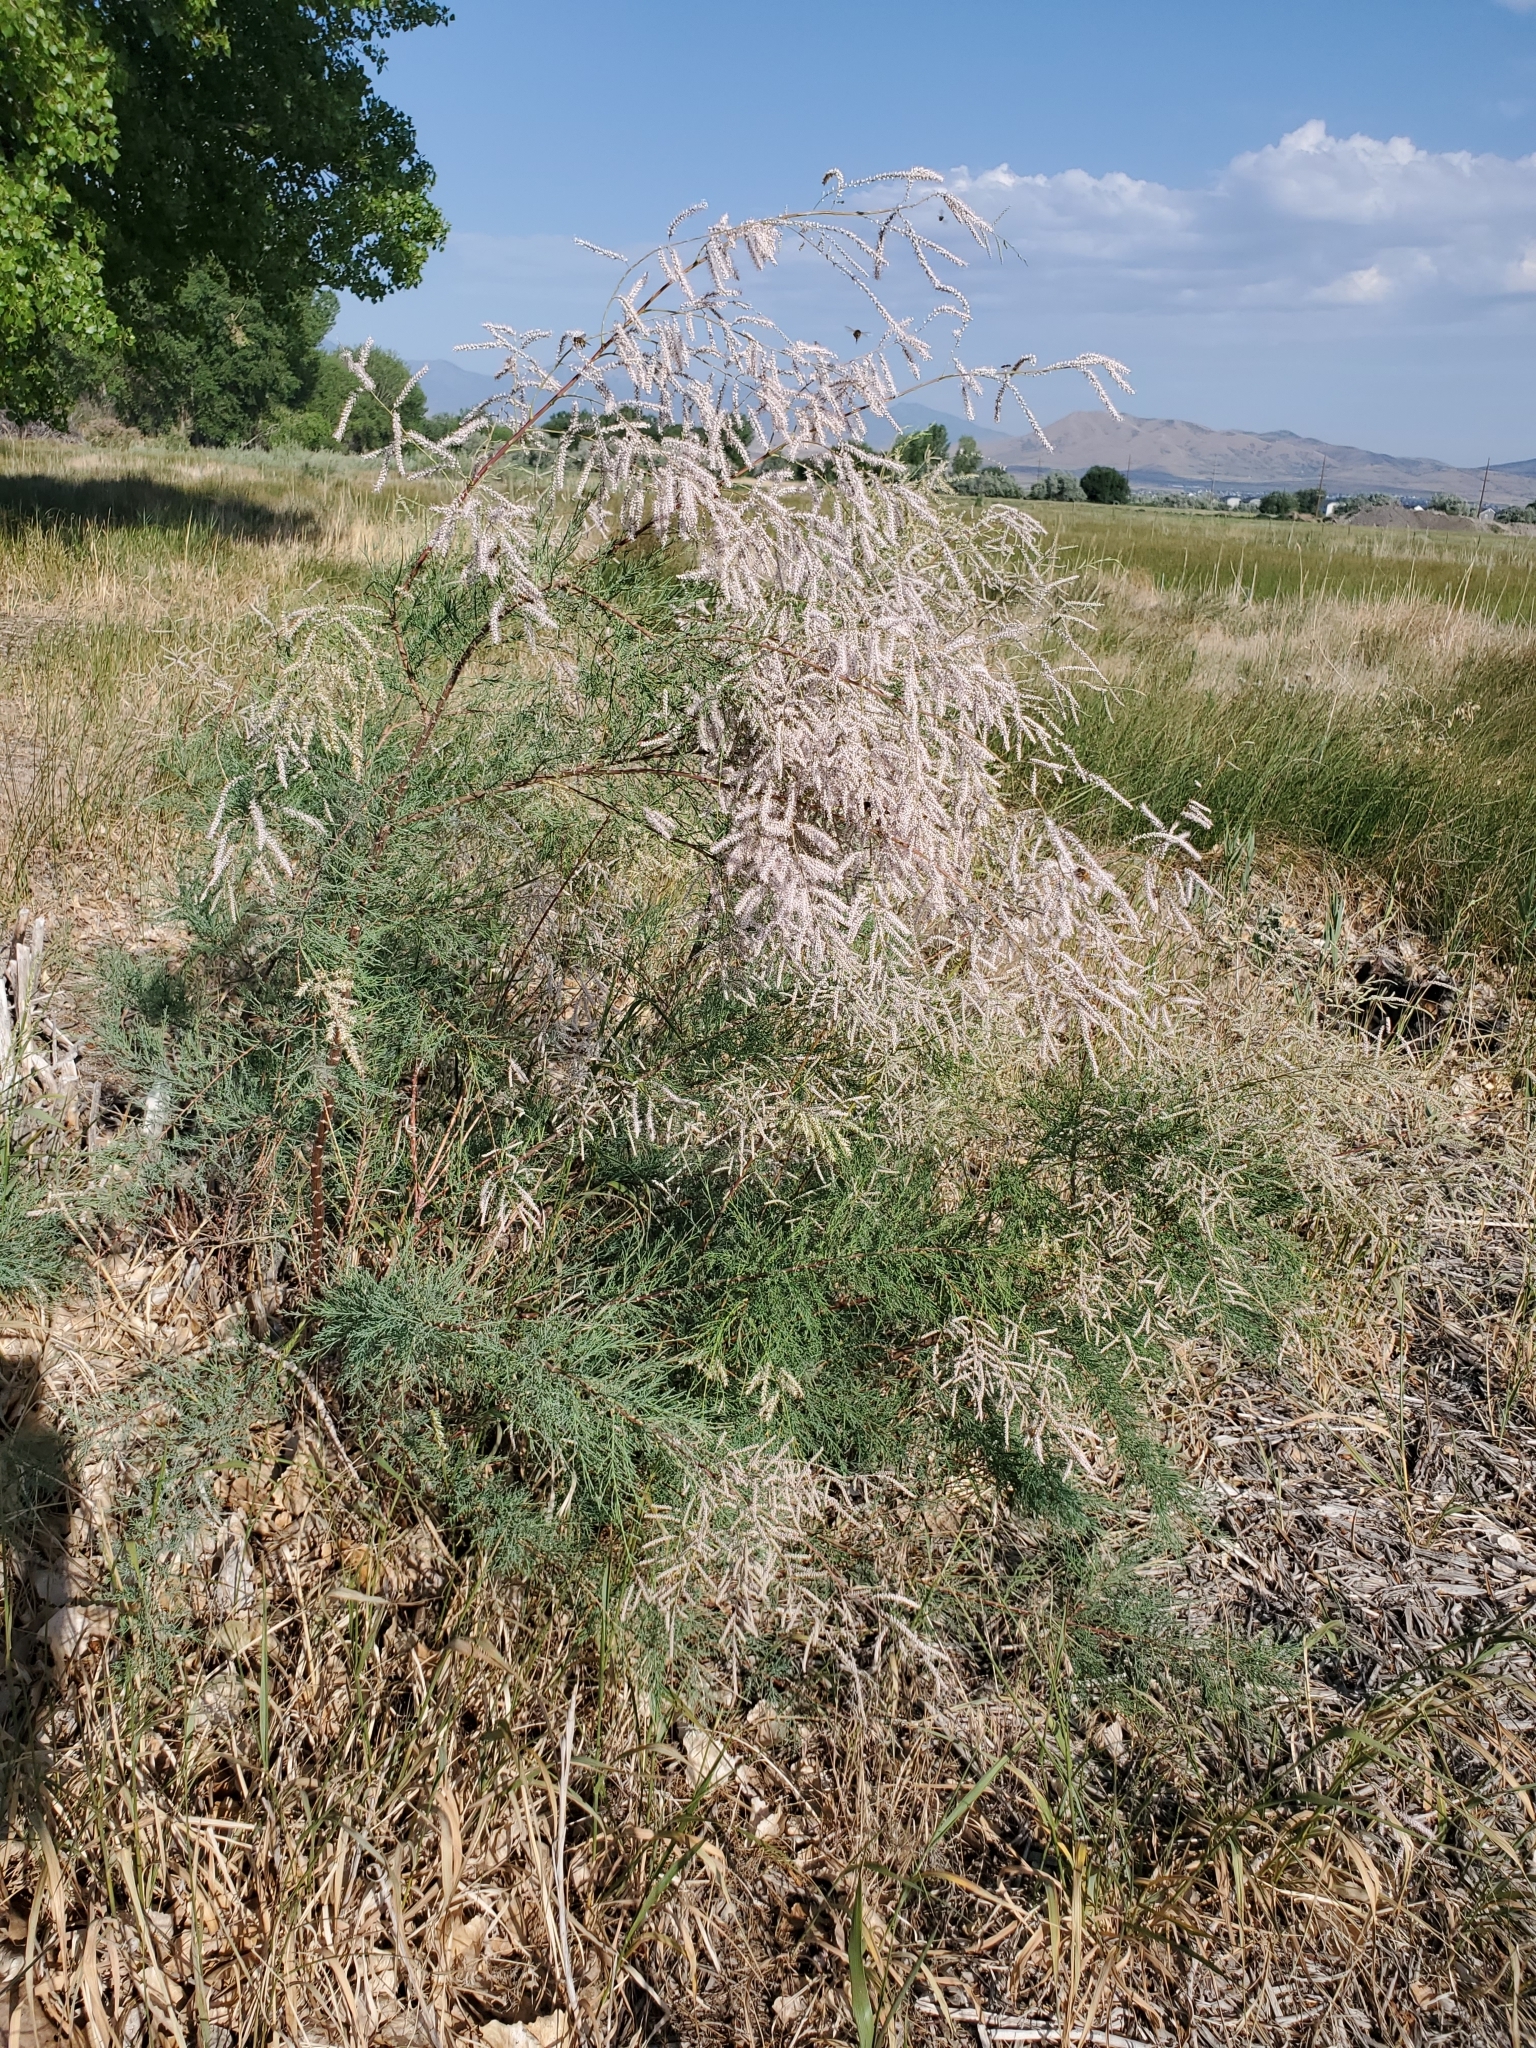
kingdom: Plantae
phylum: Tracheophyta
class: Magnoliopsida
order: Caryophyllales
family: Tamaricaceae
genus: Tamarix
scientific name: Tamarix
